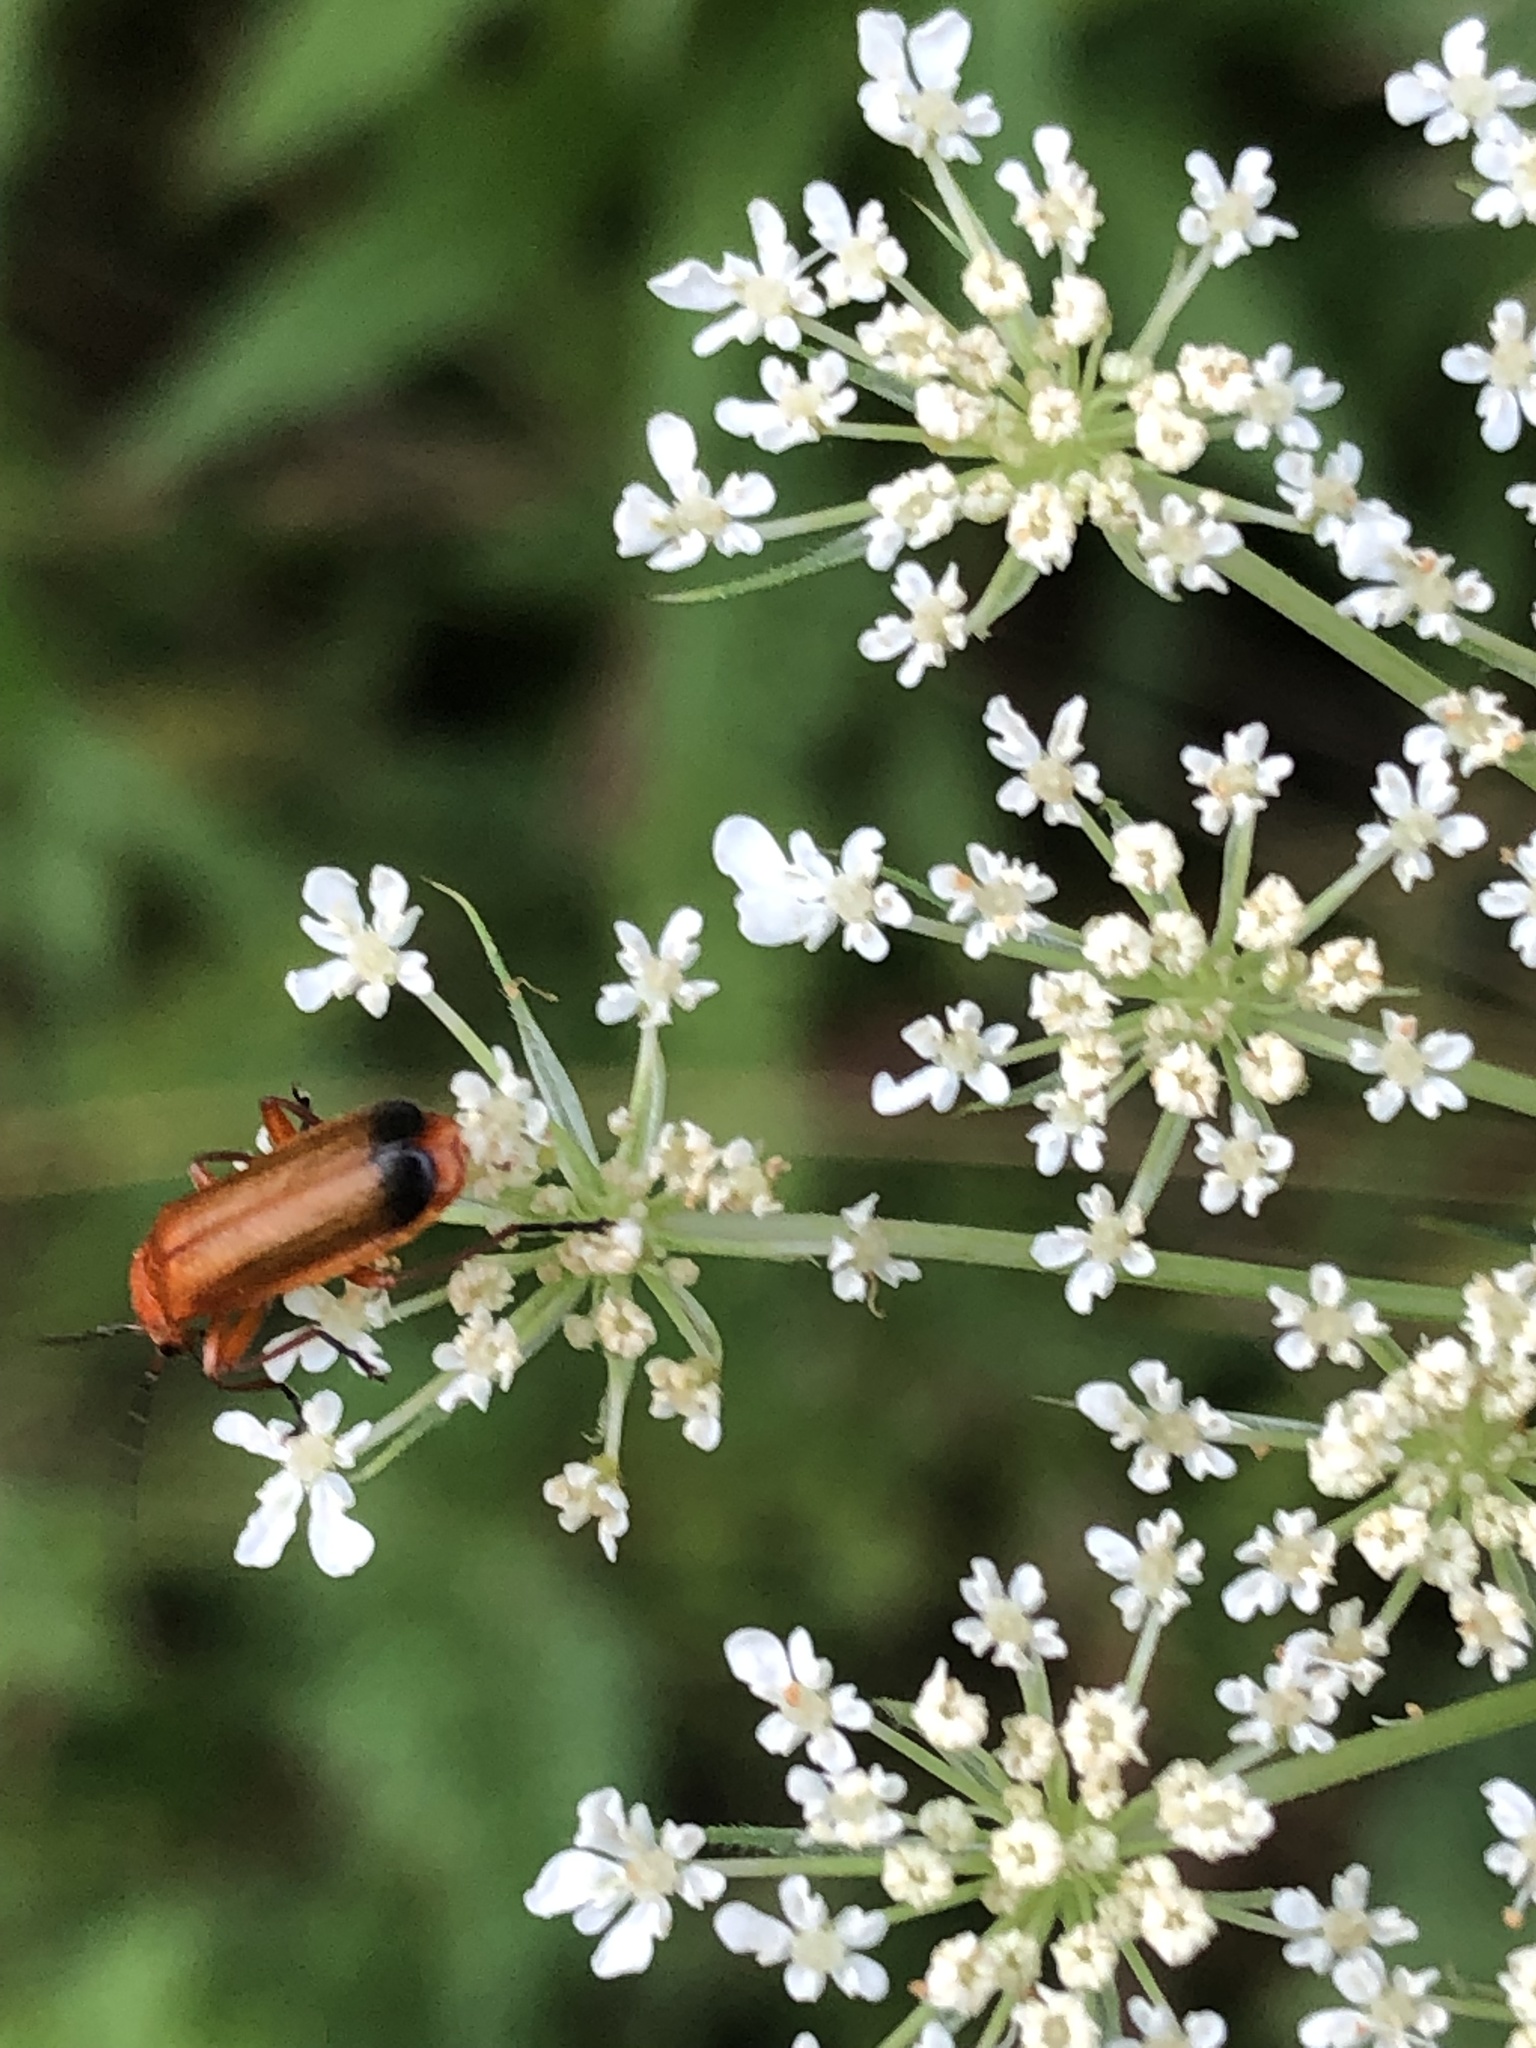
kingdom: Animalia
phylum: Arthropoda
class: Insecta
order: Coleoptera
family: Cantharidae
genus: Rhagonycha
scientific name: Rhagonycha fulva
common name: Common red soldier beetle
